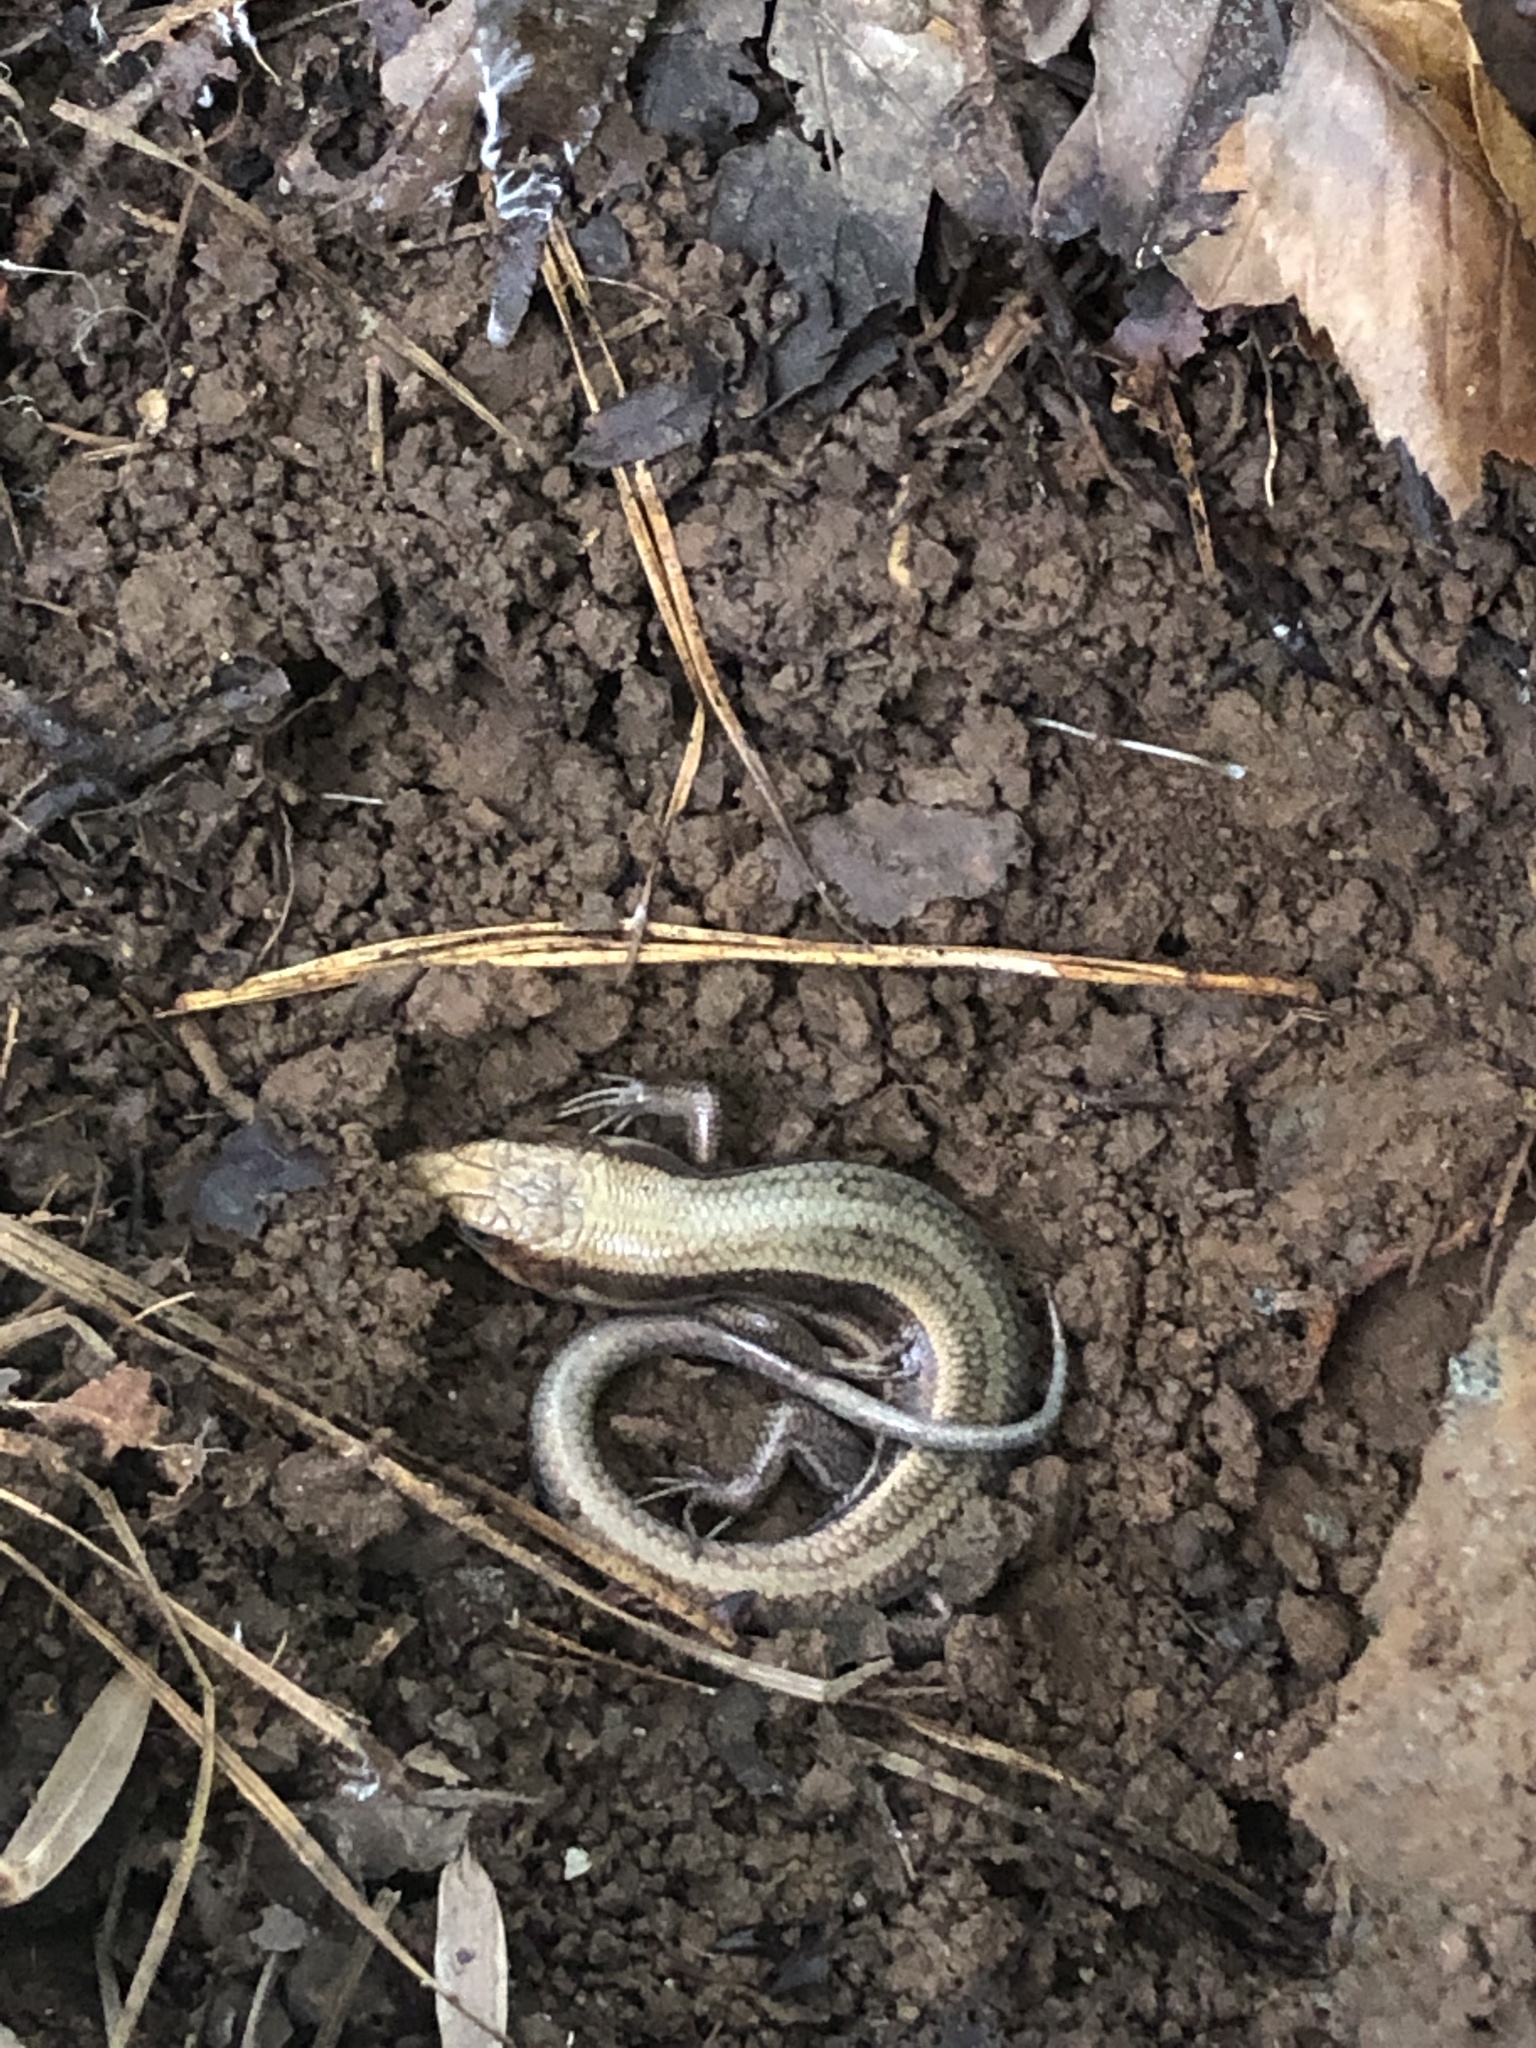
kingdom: Animalia
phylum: Chordata
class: Squamata
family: Scincidae
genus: Plestiodon
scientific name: Plestiodon fasciatus
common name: Five-lined skink
